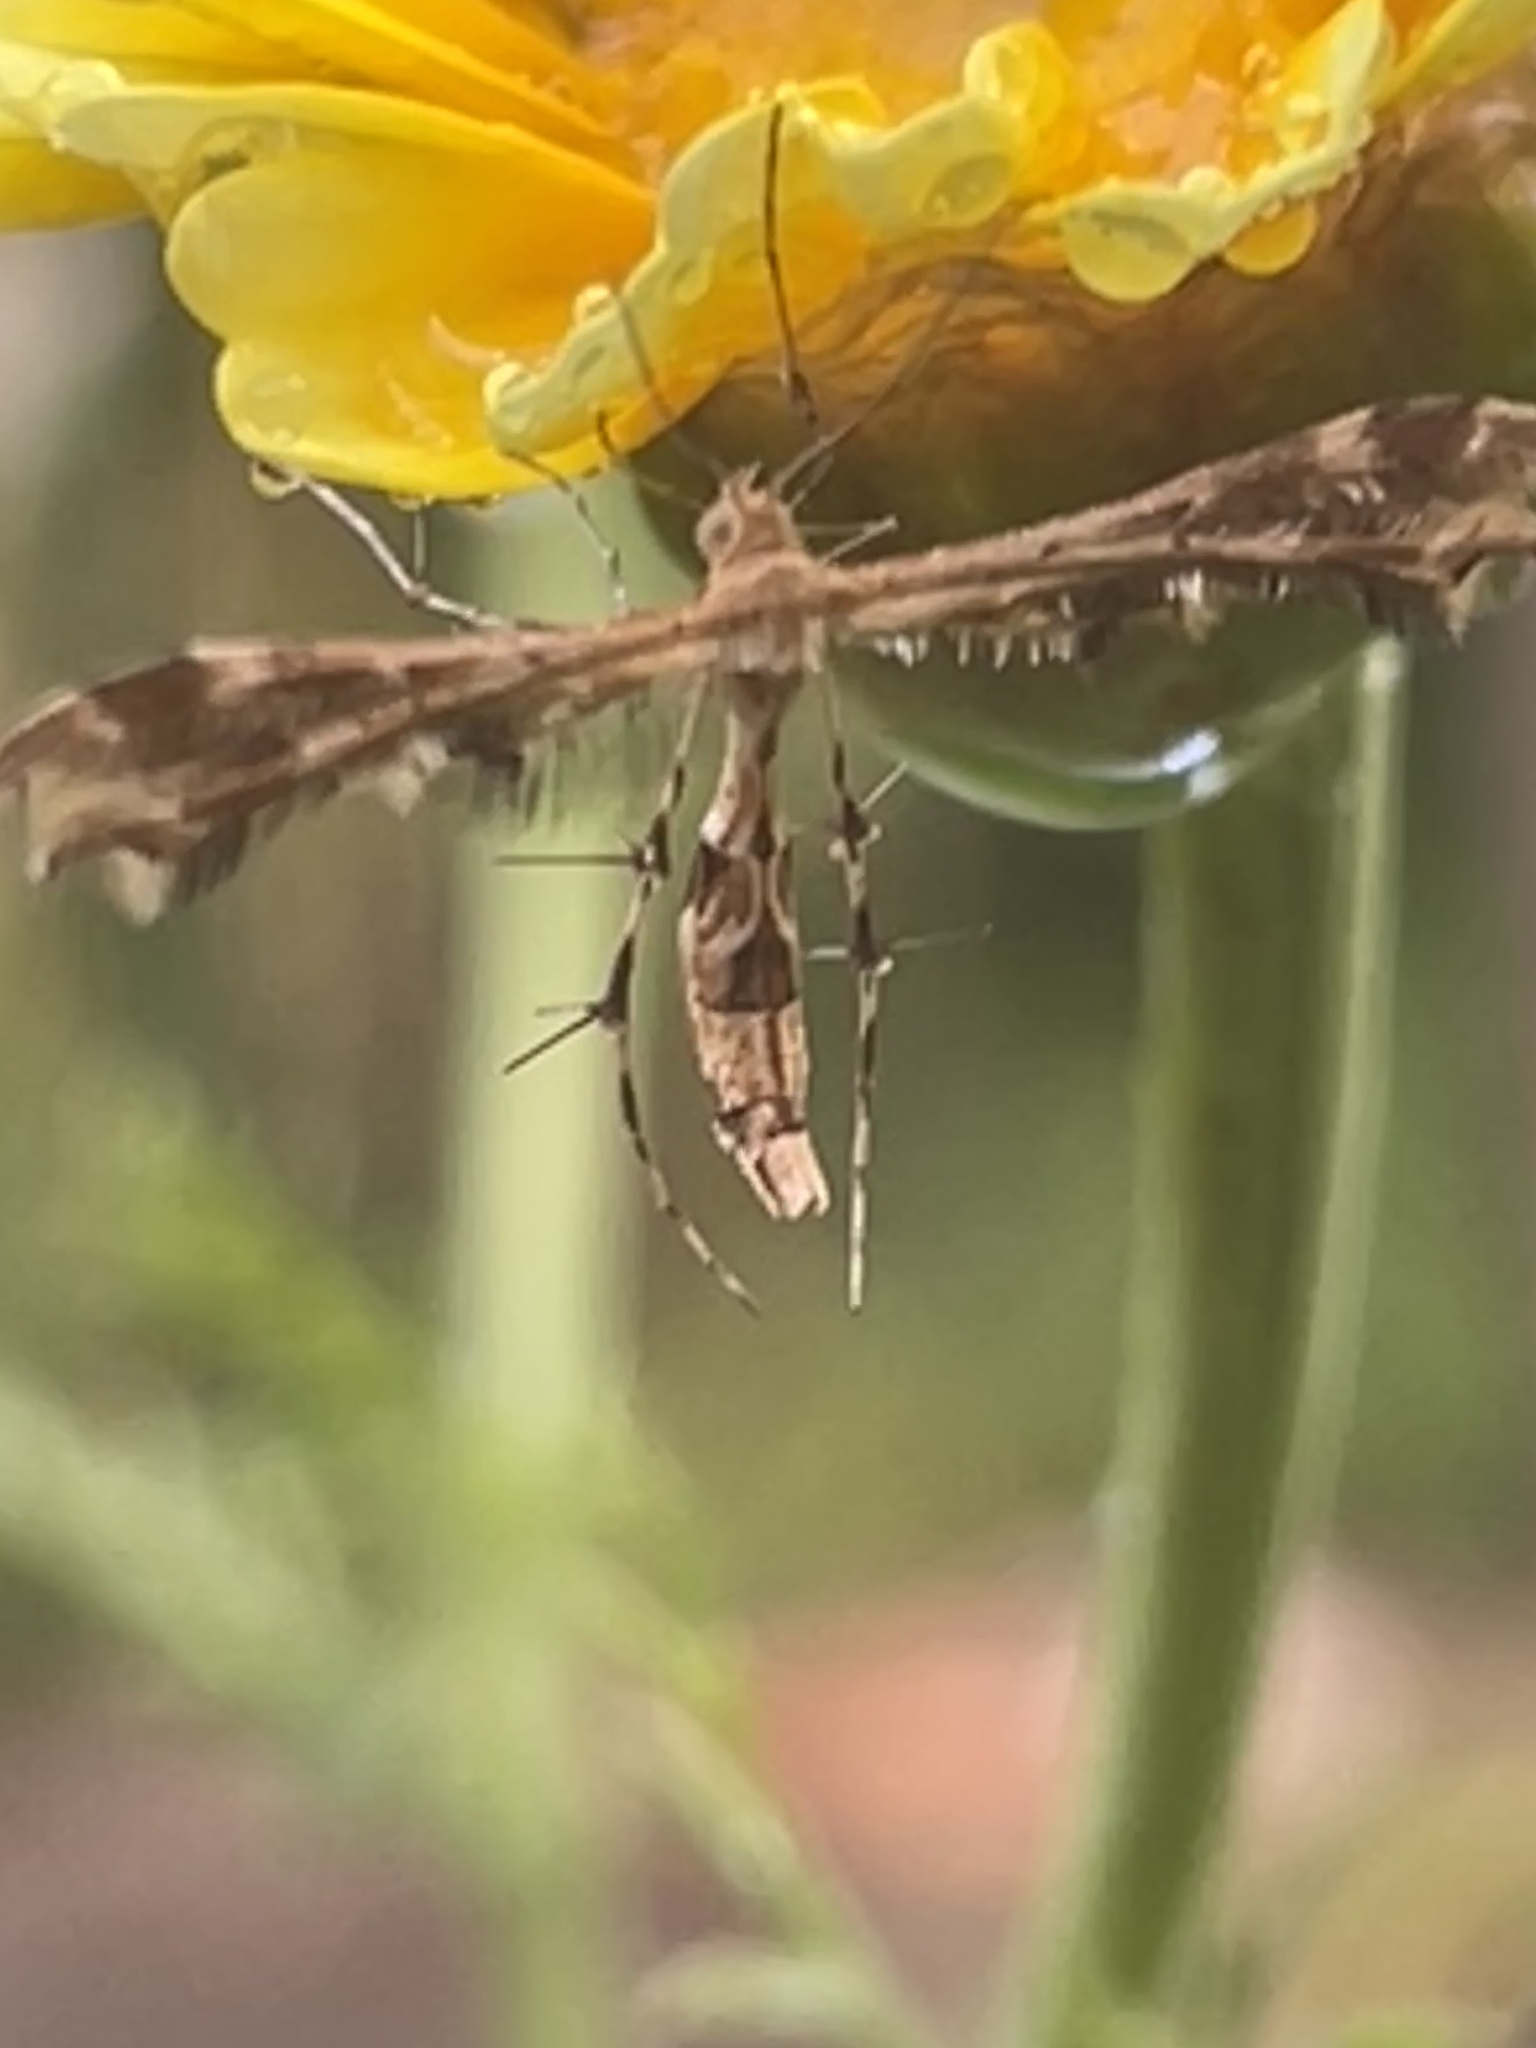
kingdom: Animalia
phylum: Arthropoda
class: Insecta
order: Lepidoptera
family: Pterophoridae
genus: Sphenarches
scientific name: Sphenarches anisodactylus
